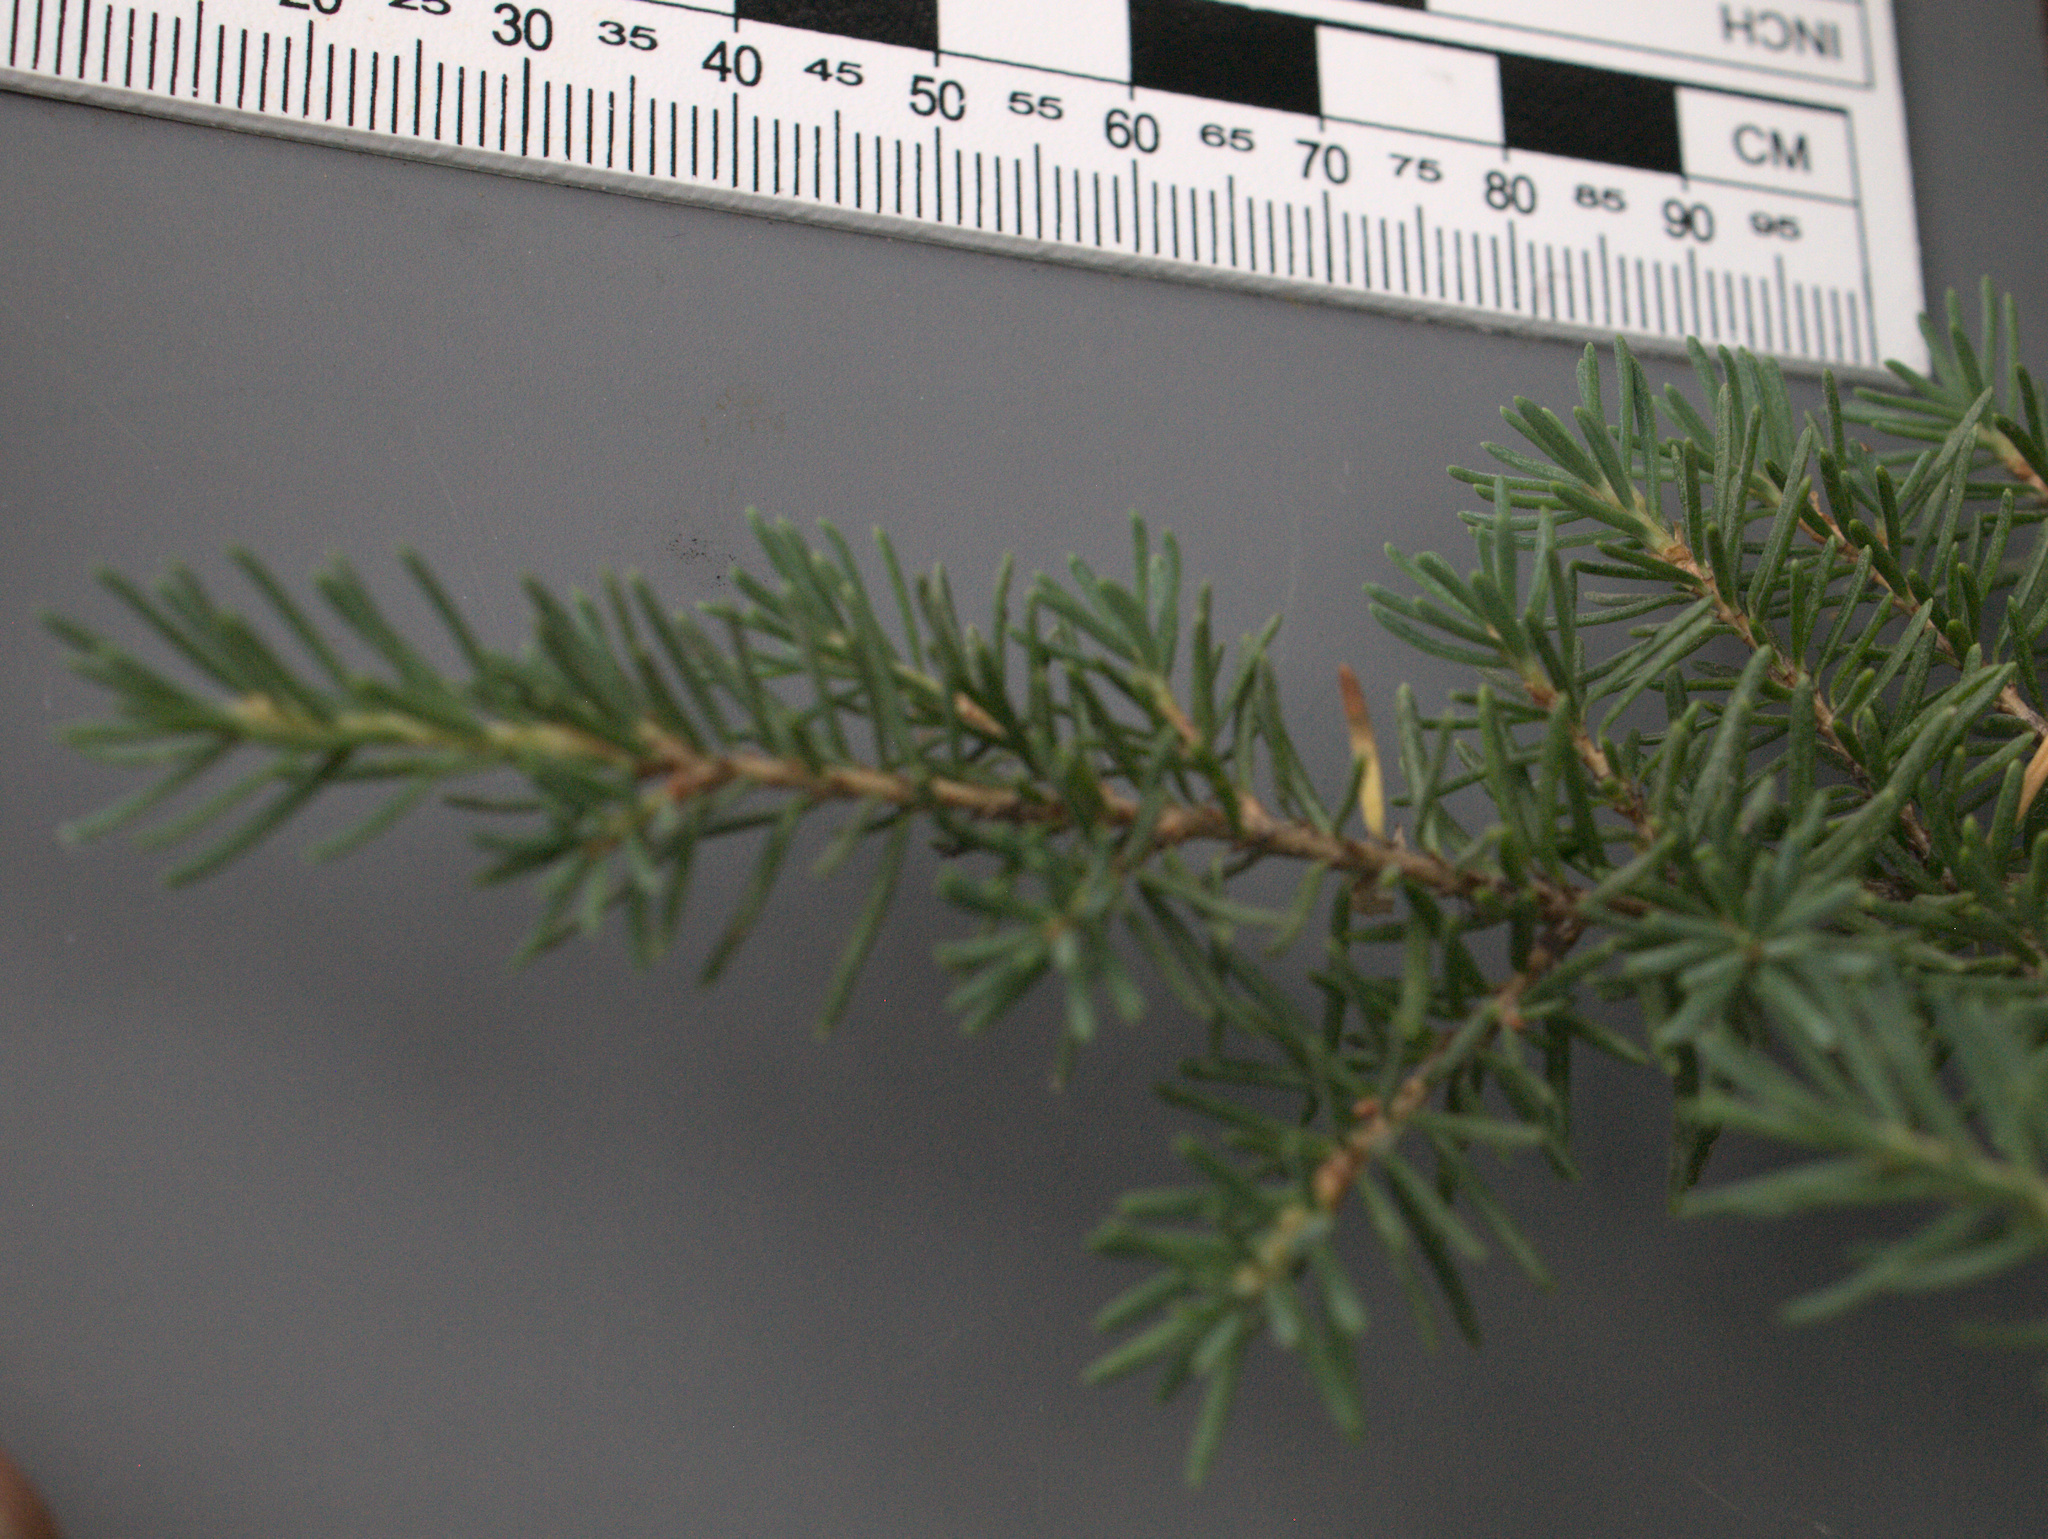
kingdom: Plantae
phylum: Tracheophyta
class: Pinopsida
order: Pinales
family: Pinaceae
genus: Tsuga
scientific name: Tsuga mertensiana
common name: Mountain hemlock
